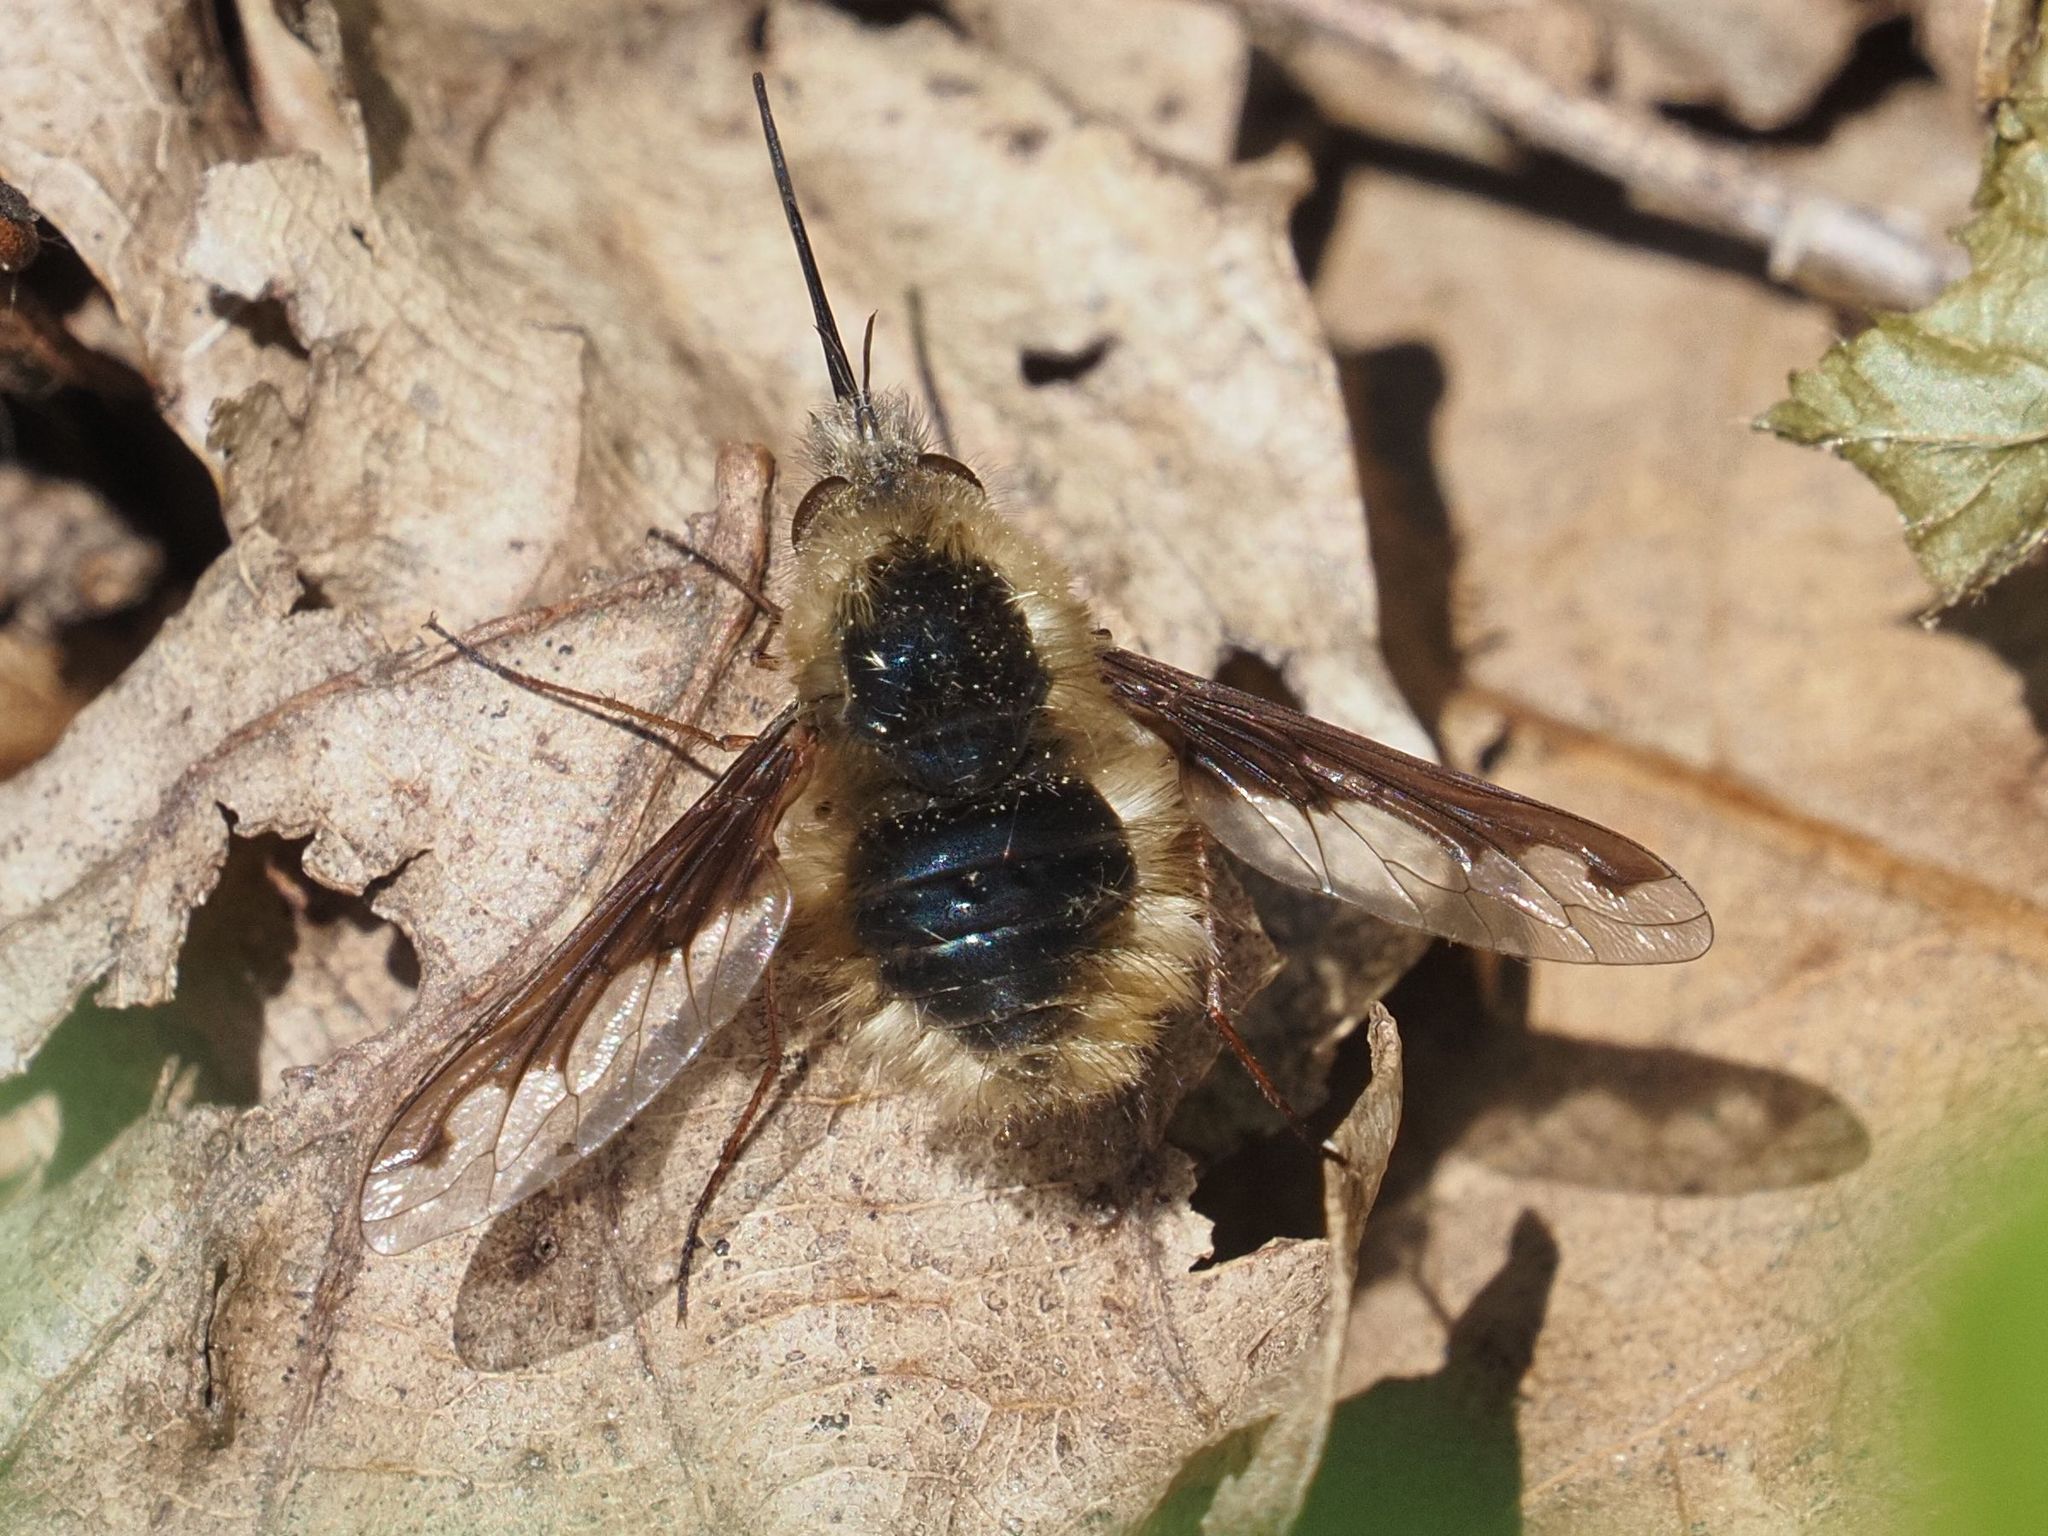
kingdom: Animalia
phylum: Arthropoda
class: Insecta
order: Diptera
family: Bombyliidae
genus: Bombylius
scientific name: Bombylius major
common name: Bee fly
